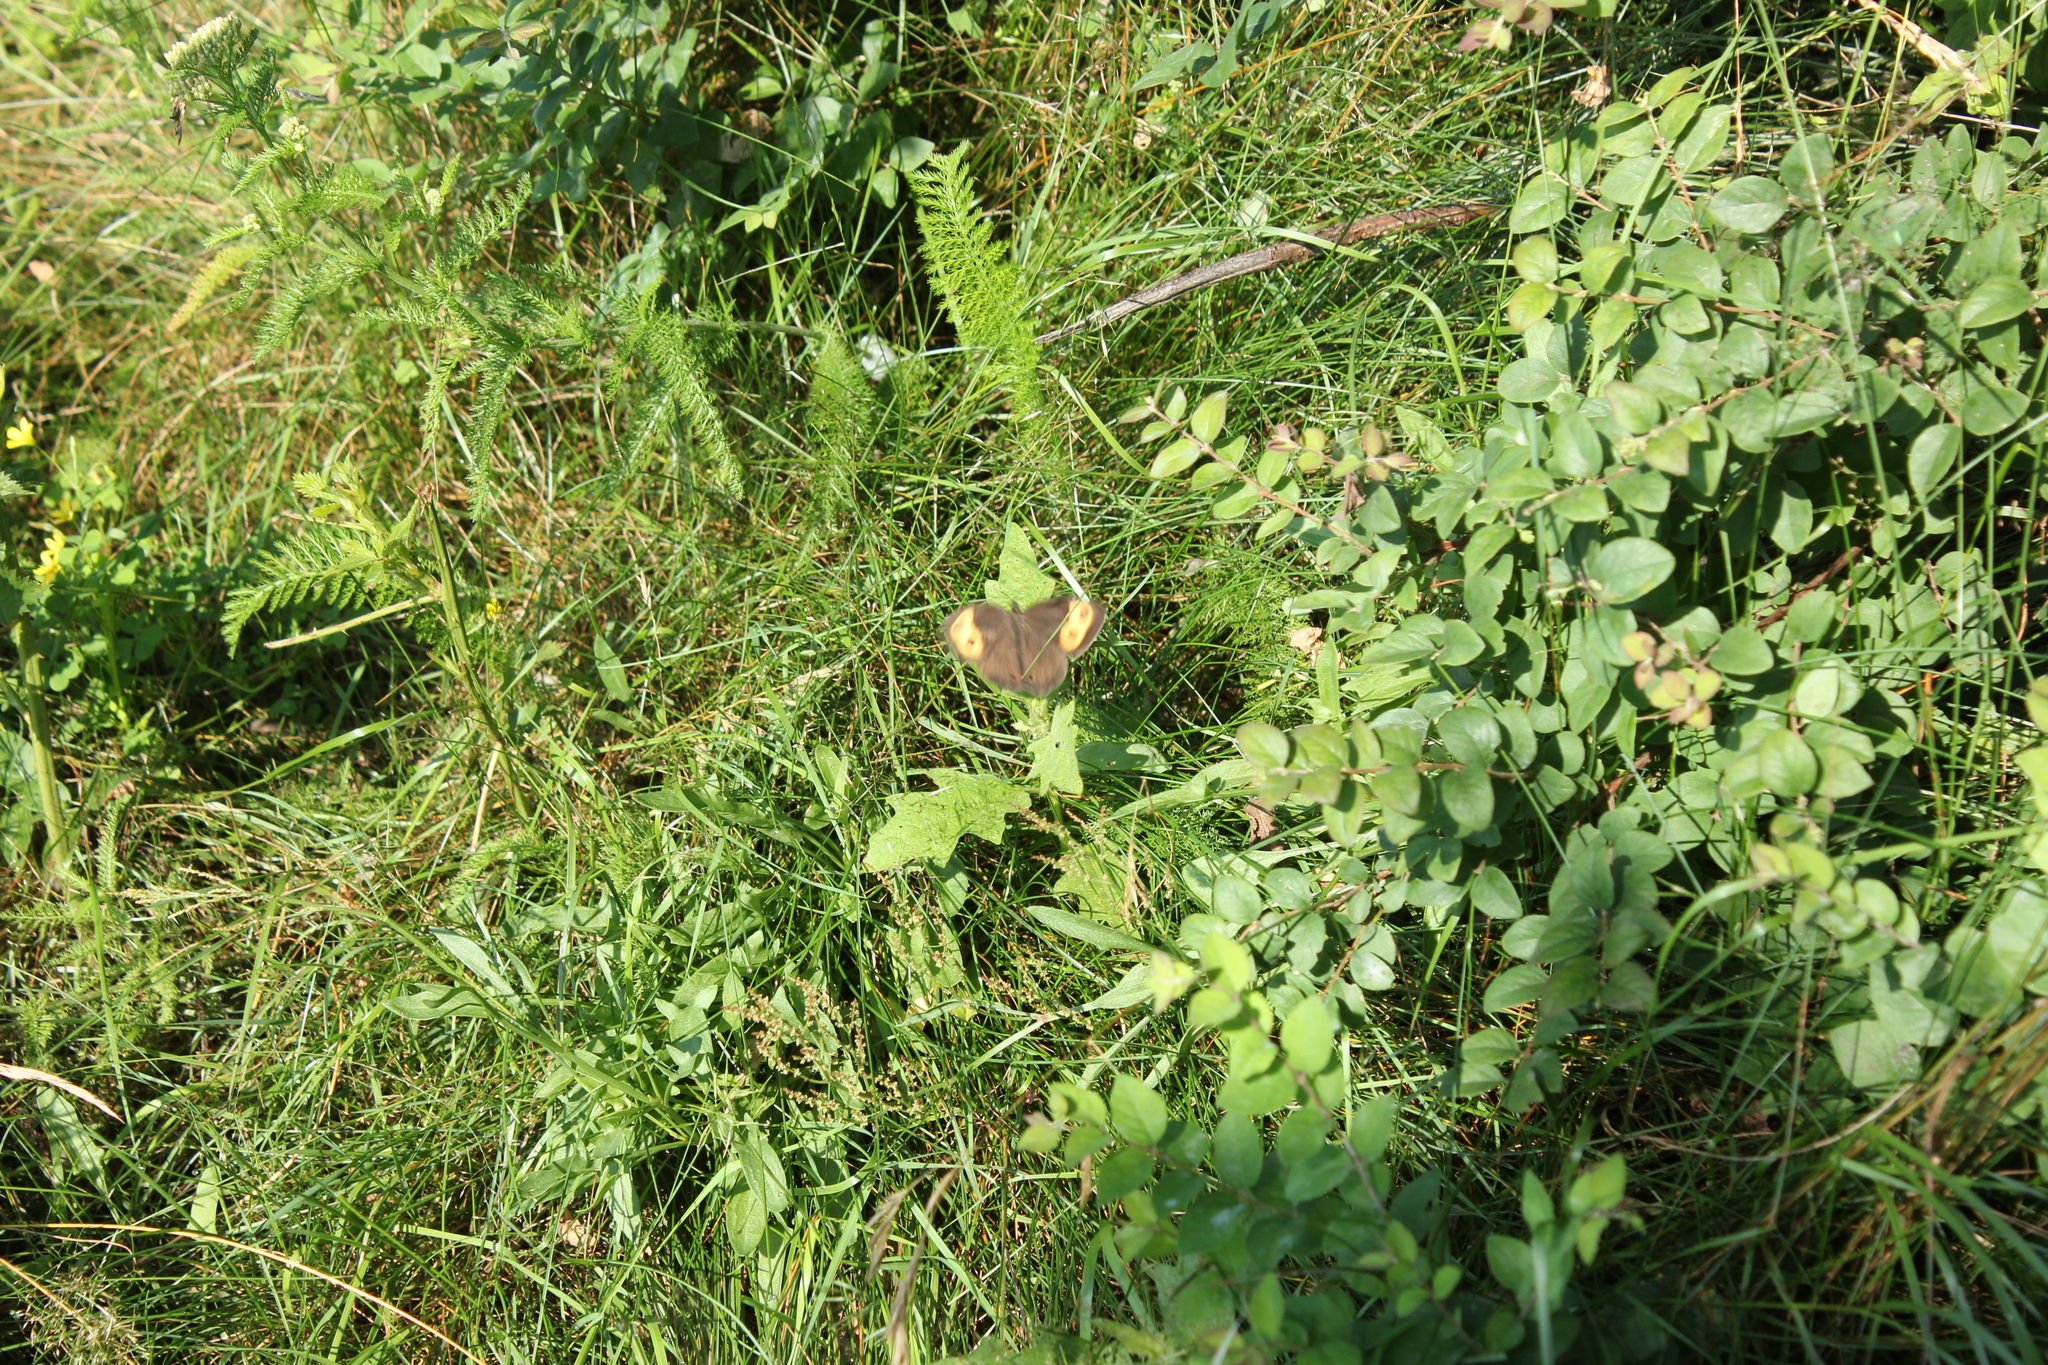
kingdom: Animalia
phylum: Arthropoda
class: Insecta
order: Lepidoptera
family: Nymphalidae
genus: Cercyonis
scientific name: Cercyonis pegala
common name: Common wood-nymph
